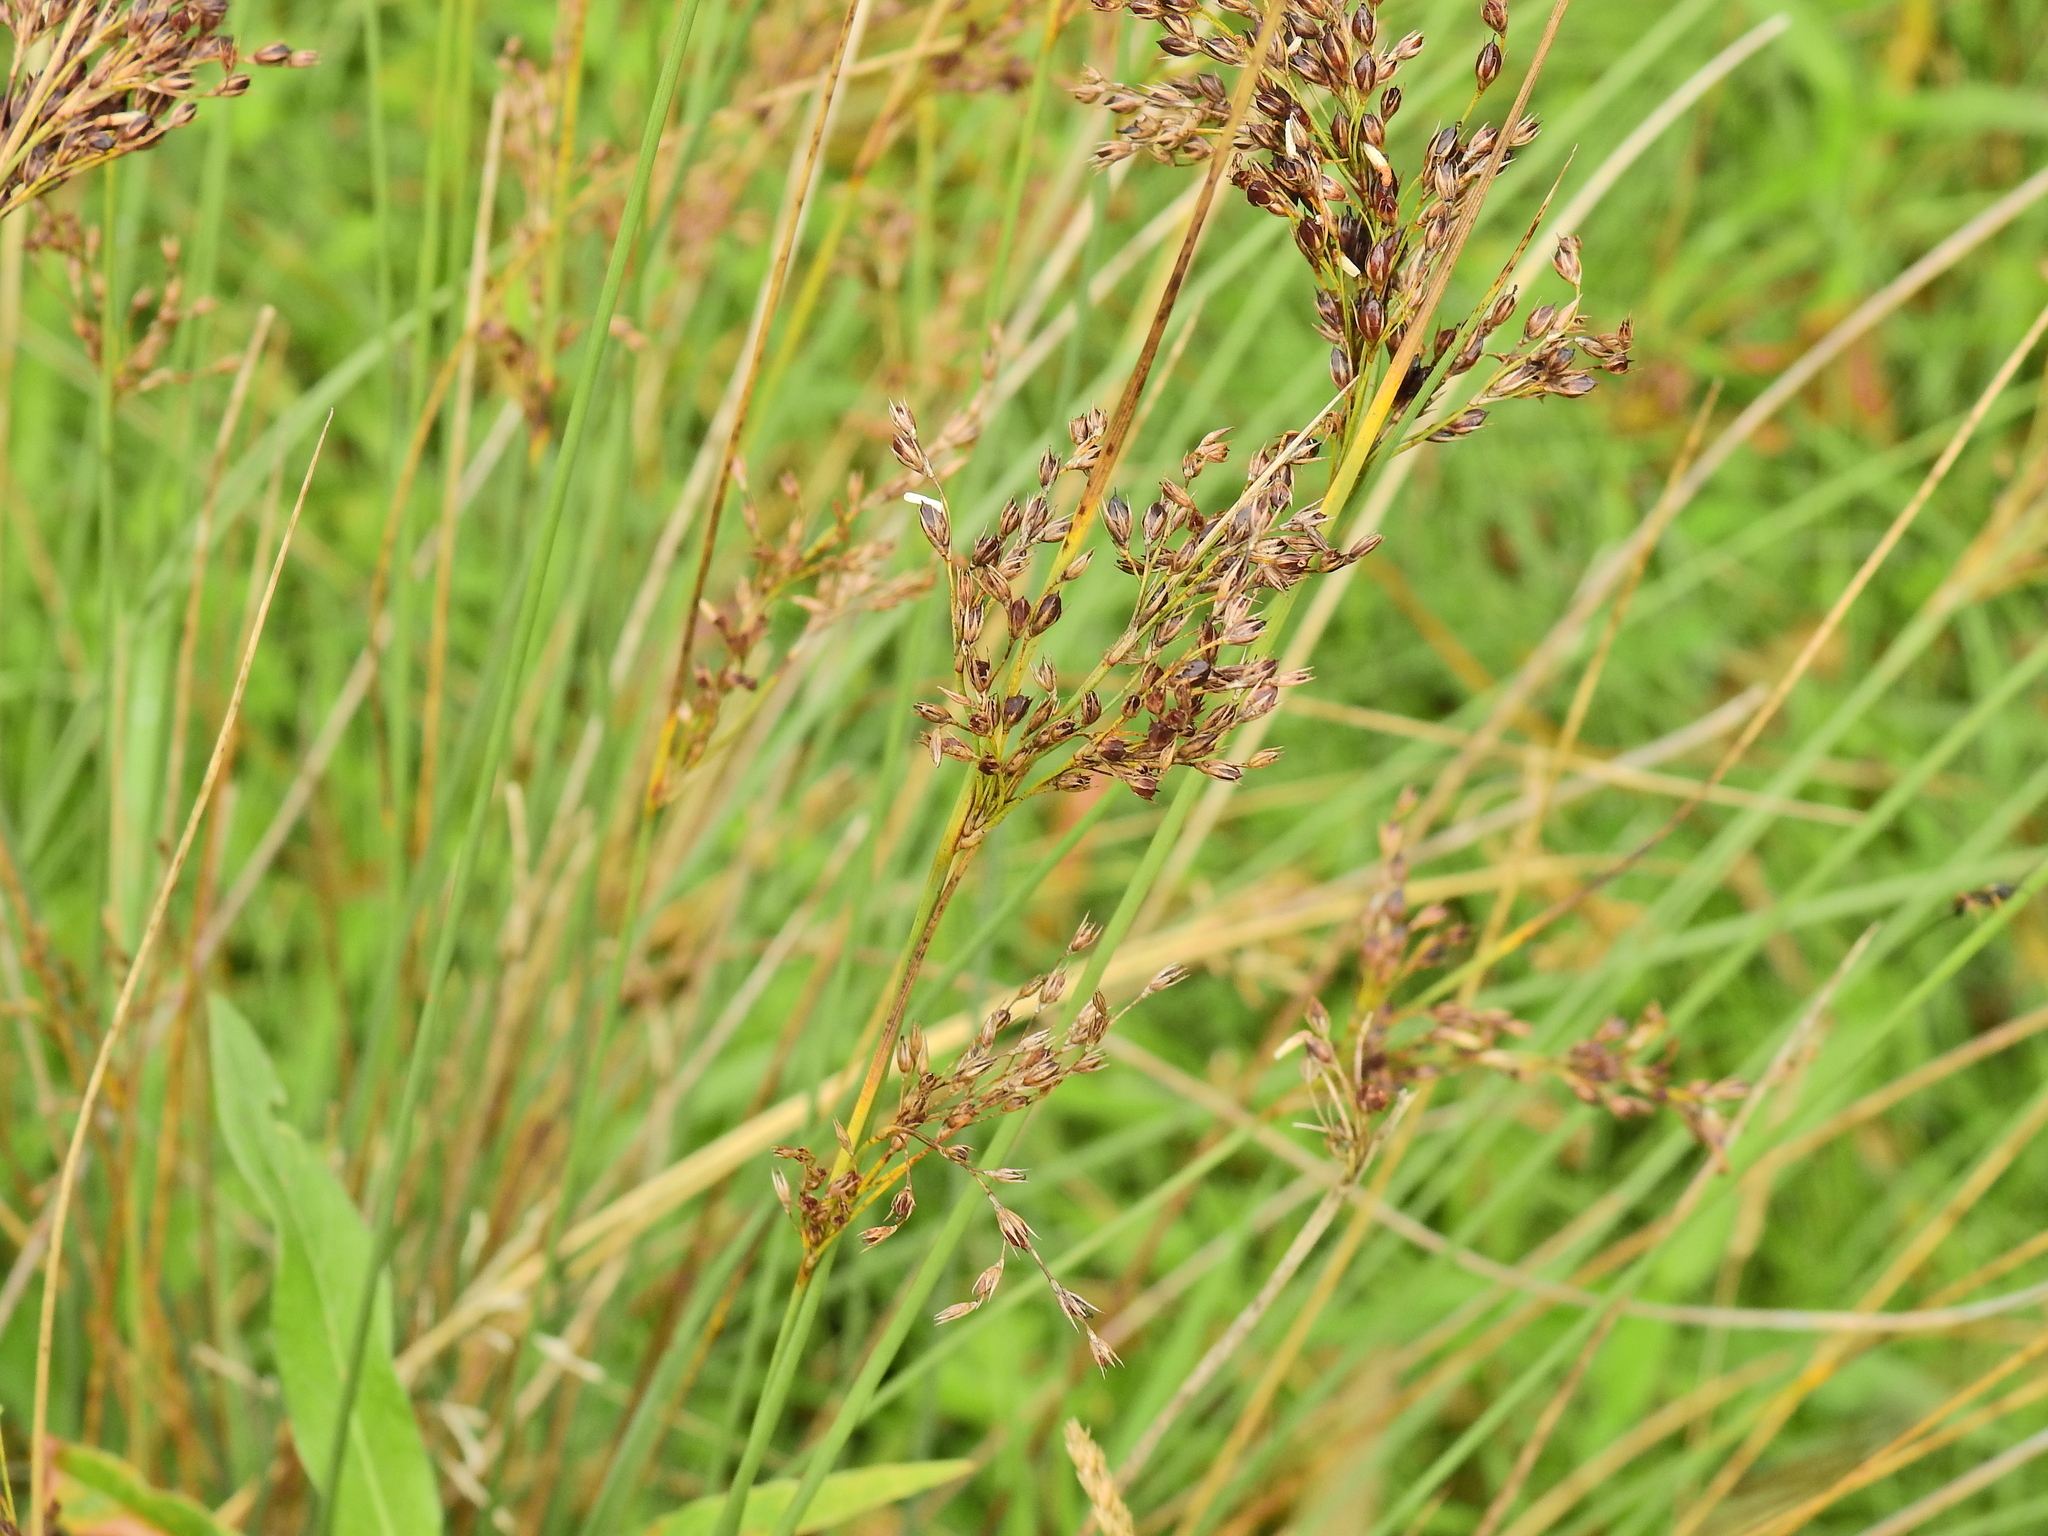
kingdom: Plantae
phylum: Tracheophyta
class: Liliopsida
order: Poales
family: Juncaceae
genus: Juncus
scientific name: Juncus inflexus
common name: Hard rush
